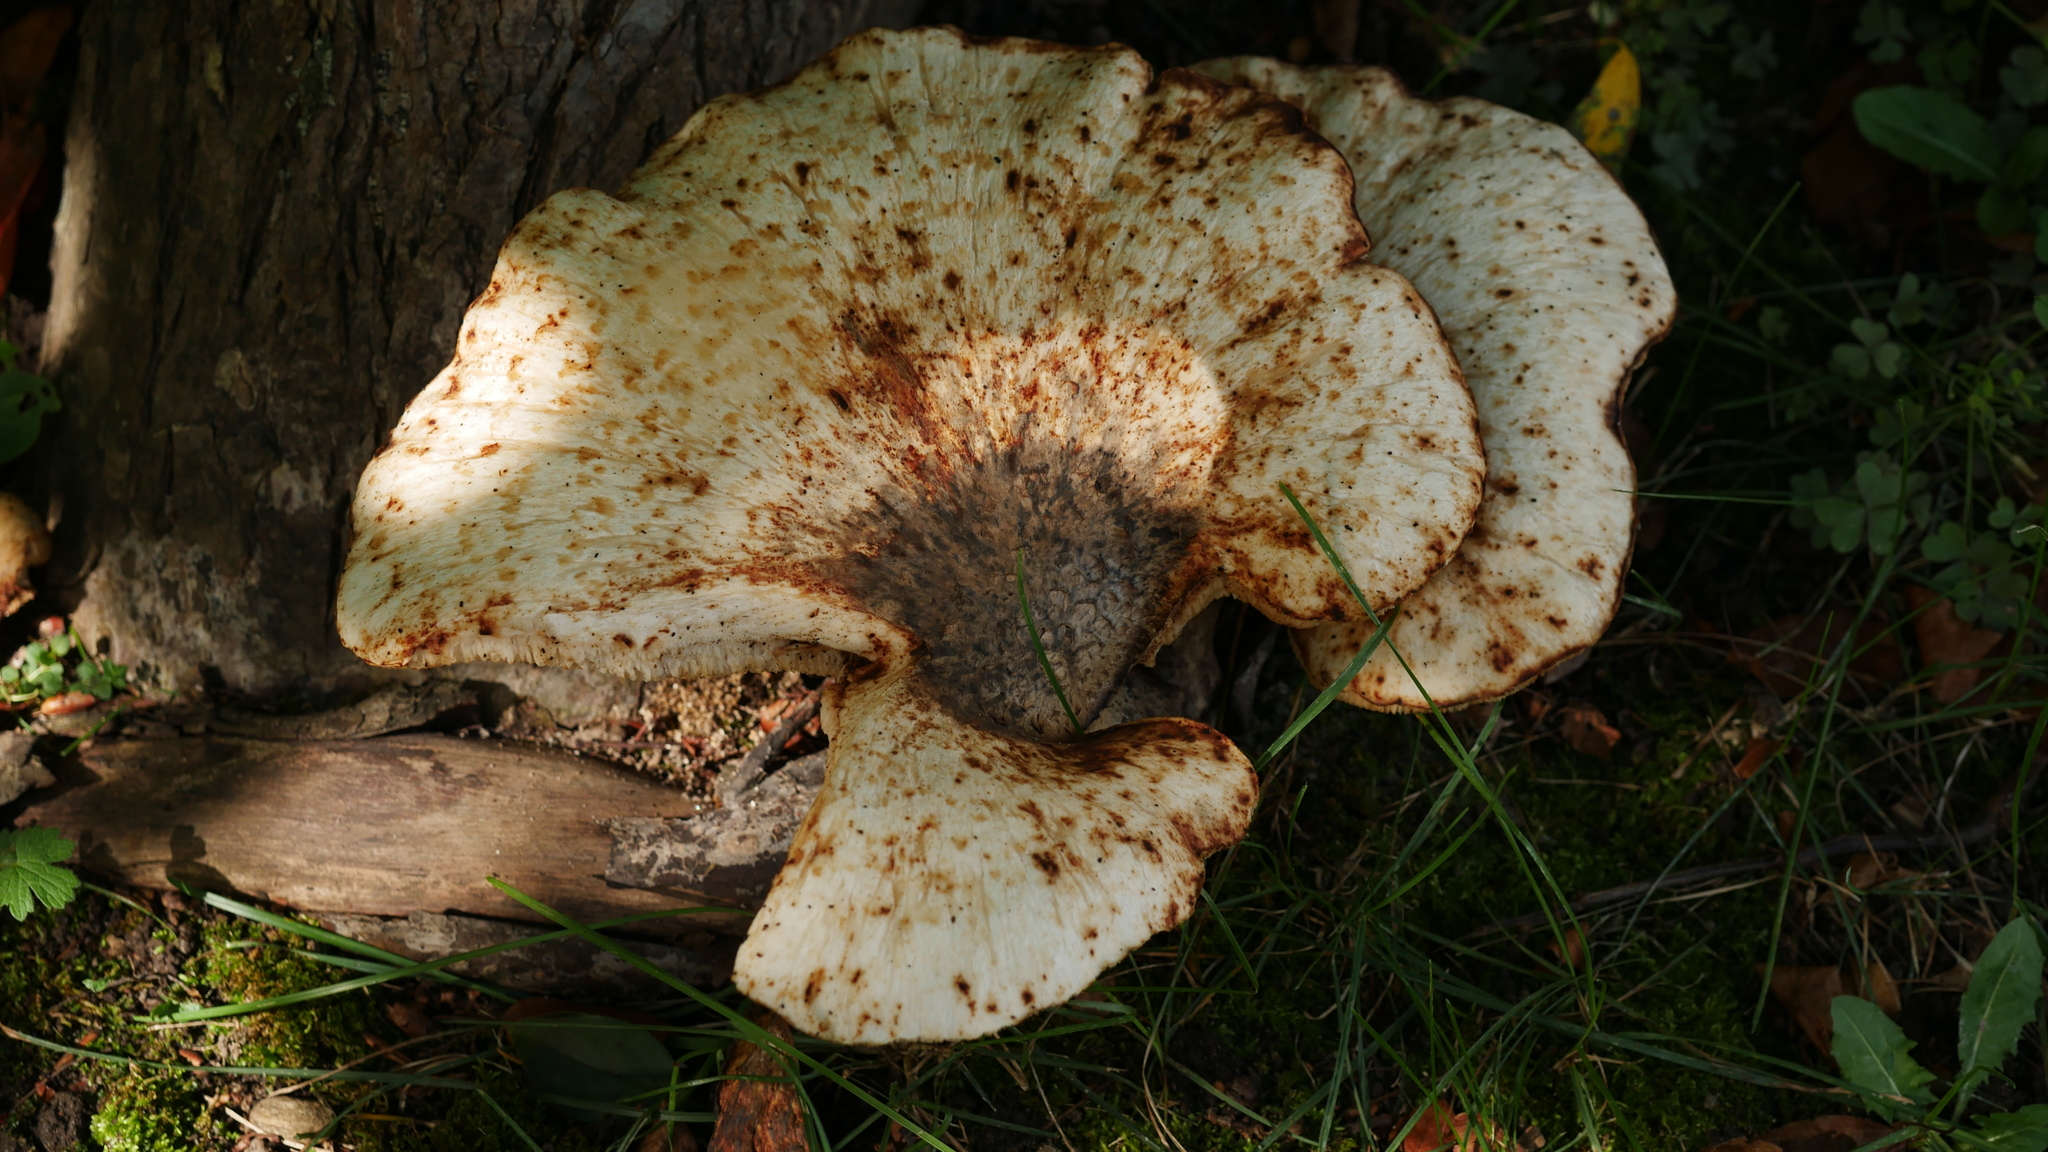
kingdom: Fungi
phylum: Basidiomycota
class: Agaricomycetes
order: Polyporales
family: Polyporaceae
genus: Cerioporus
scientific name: Cerioporus squamosus
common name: Dryad's saddle
